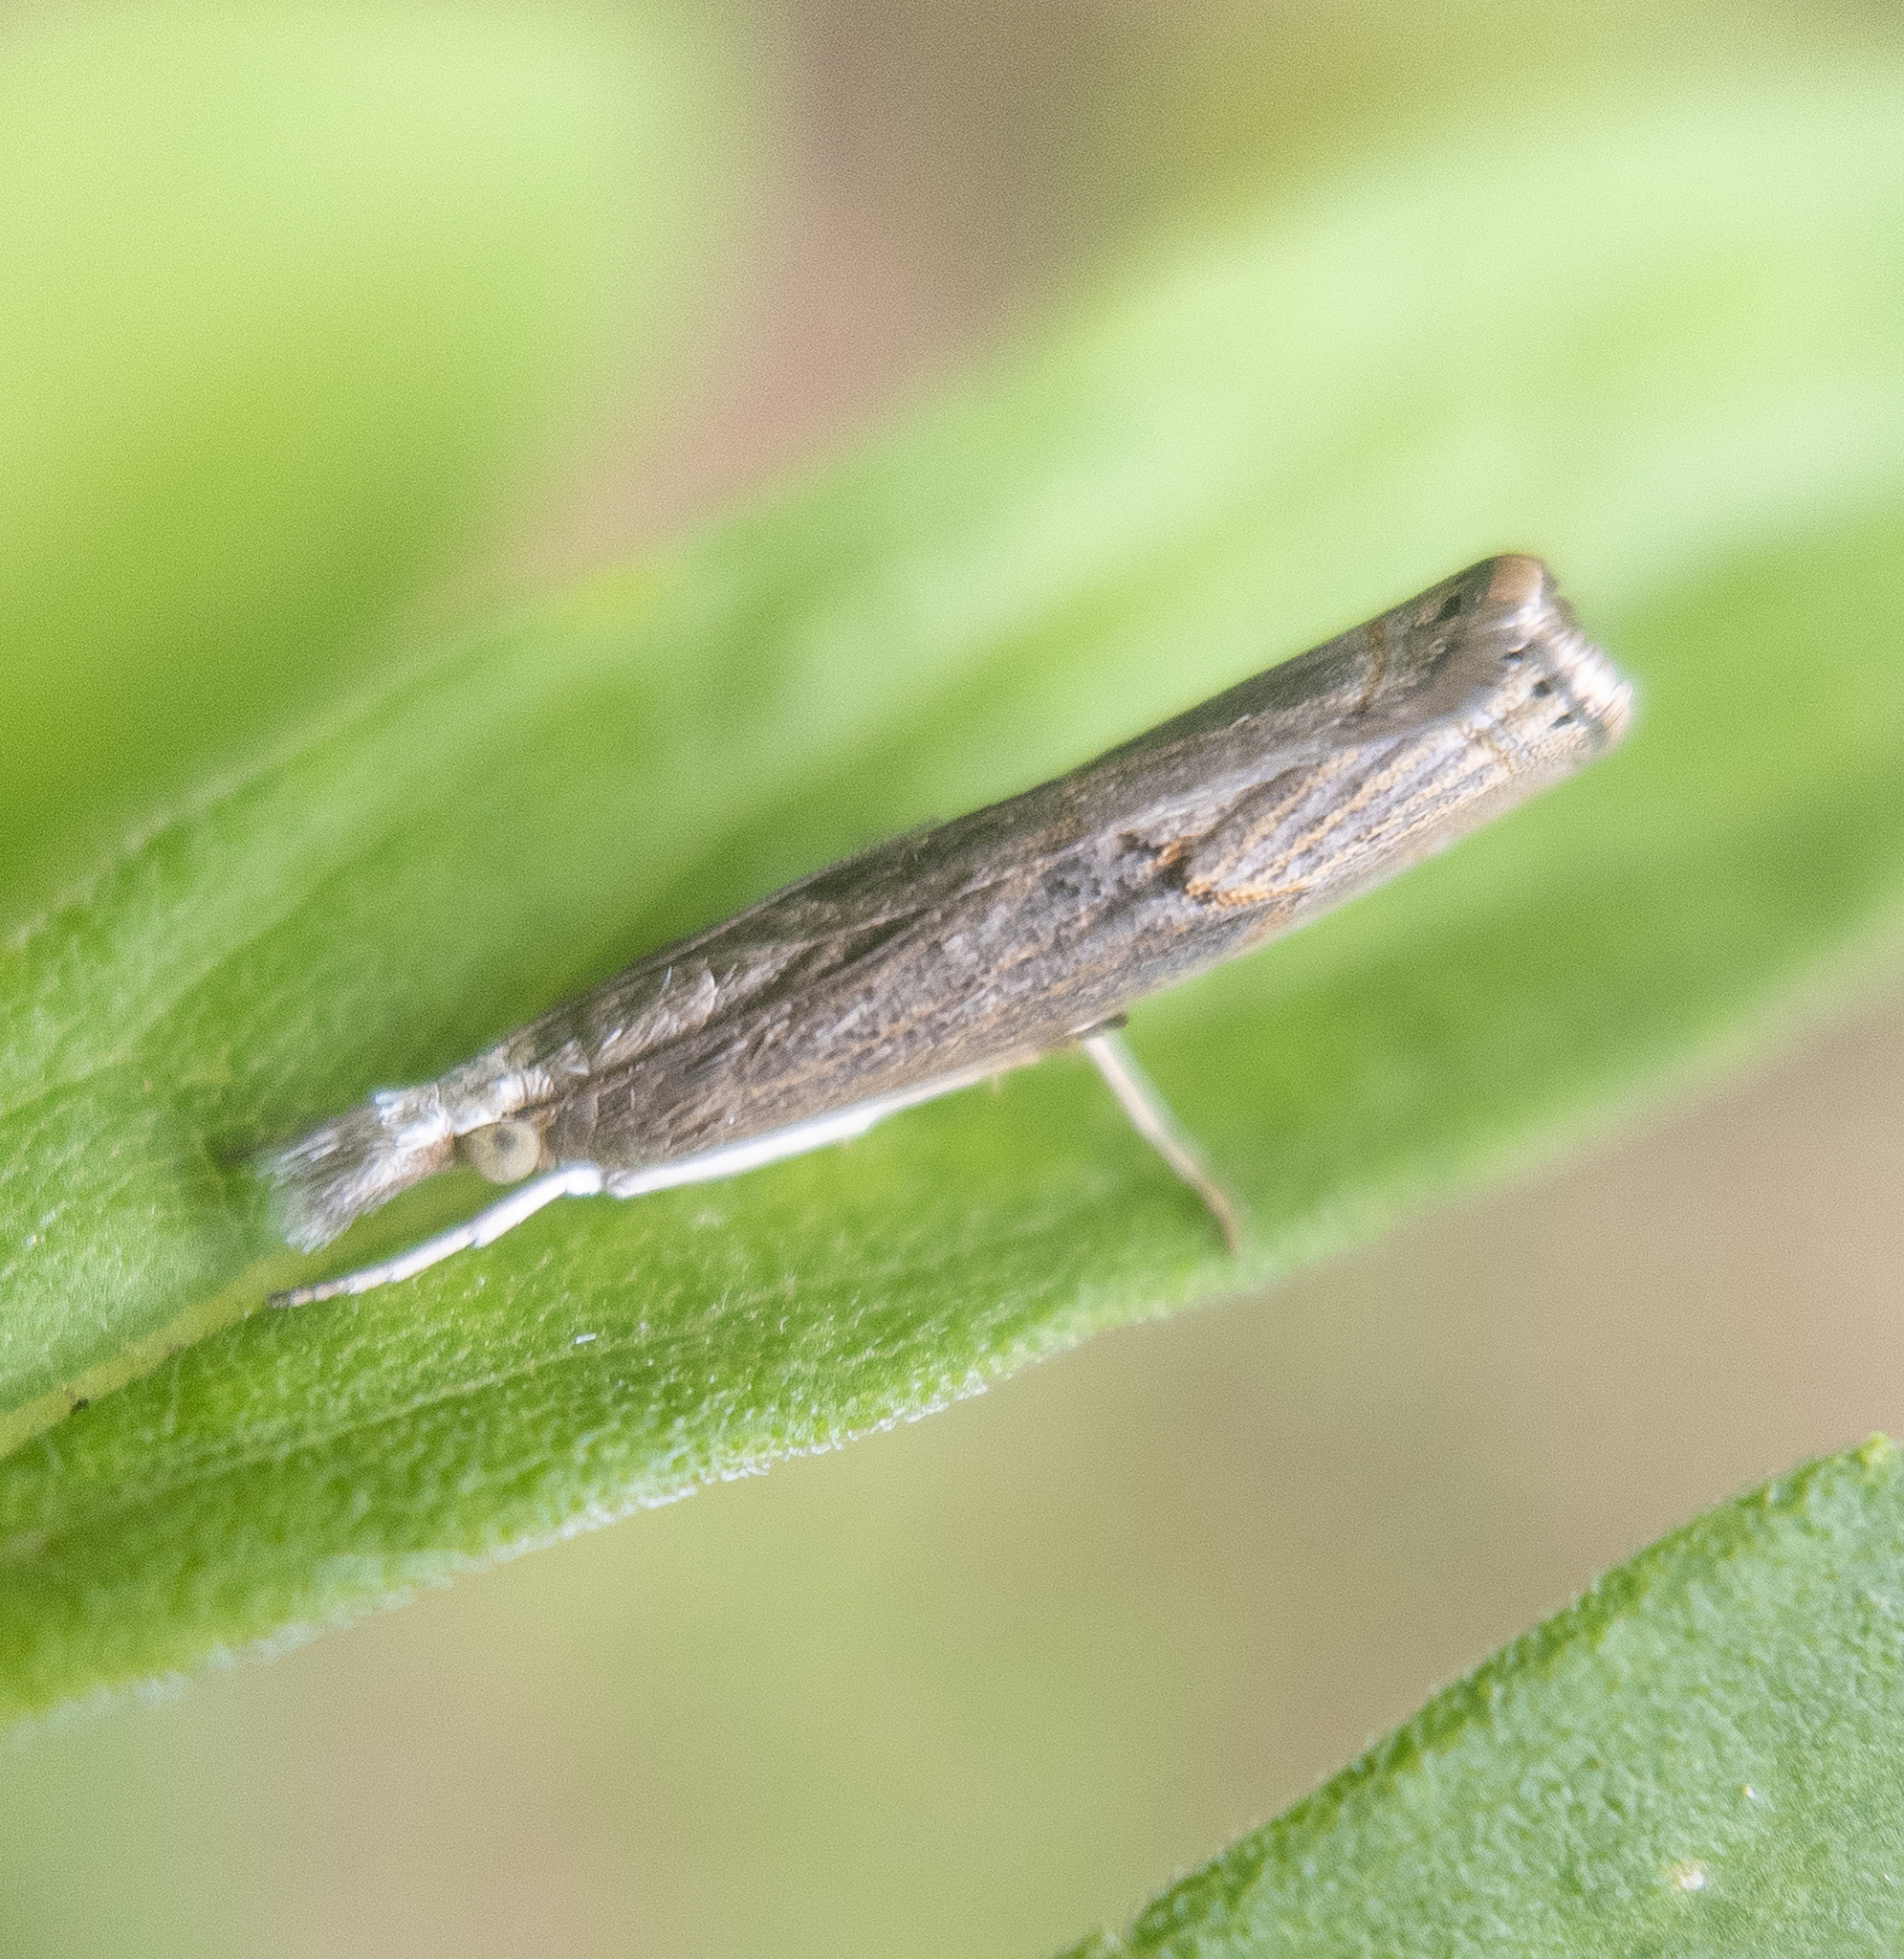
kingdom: Animalia
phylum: Arthropoda
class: Insecta
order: Lepidoptera
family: Crambidae
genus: Parapediasia
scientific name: Parapediasia teterellus
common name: Bluegrass webworm moth
